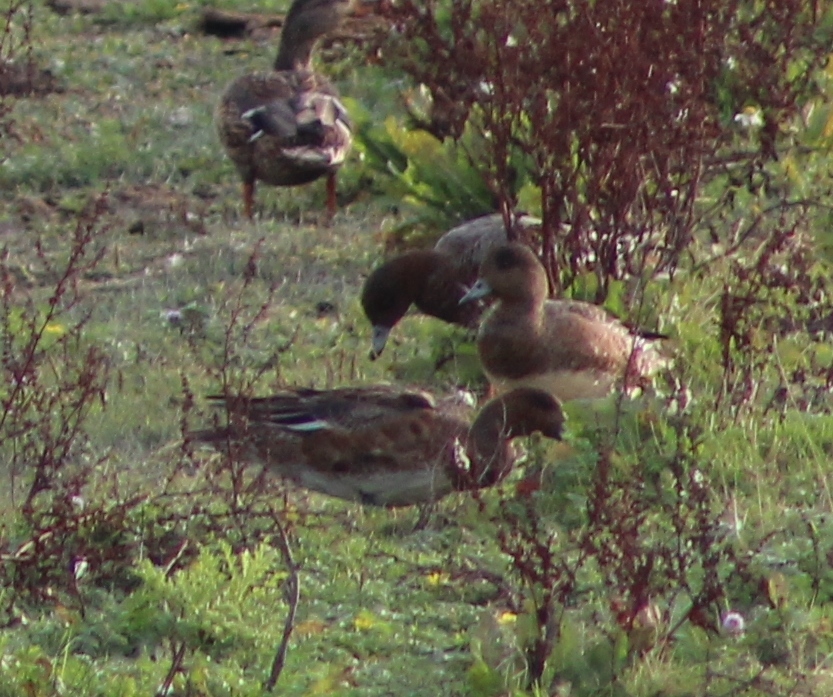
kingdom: Animalia
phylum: Chordata
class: Aves
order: Anseriformes
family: Anatidae
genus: Mareca
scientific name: Mareca penelope
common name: Eurasian wigeon
